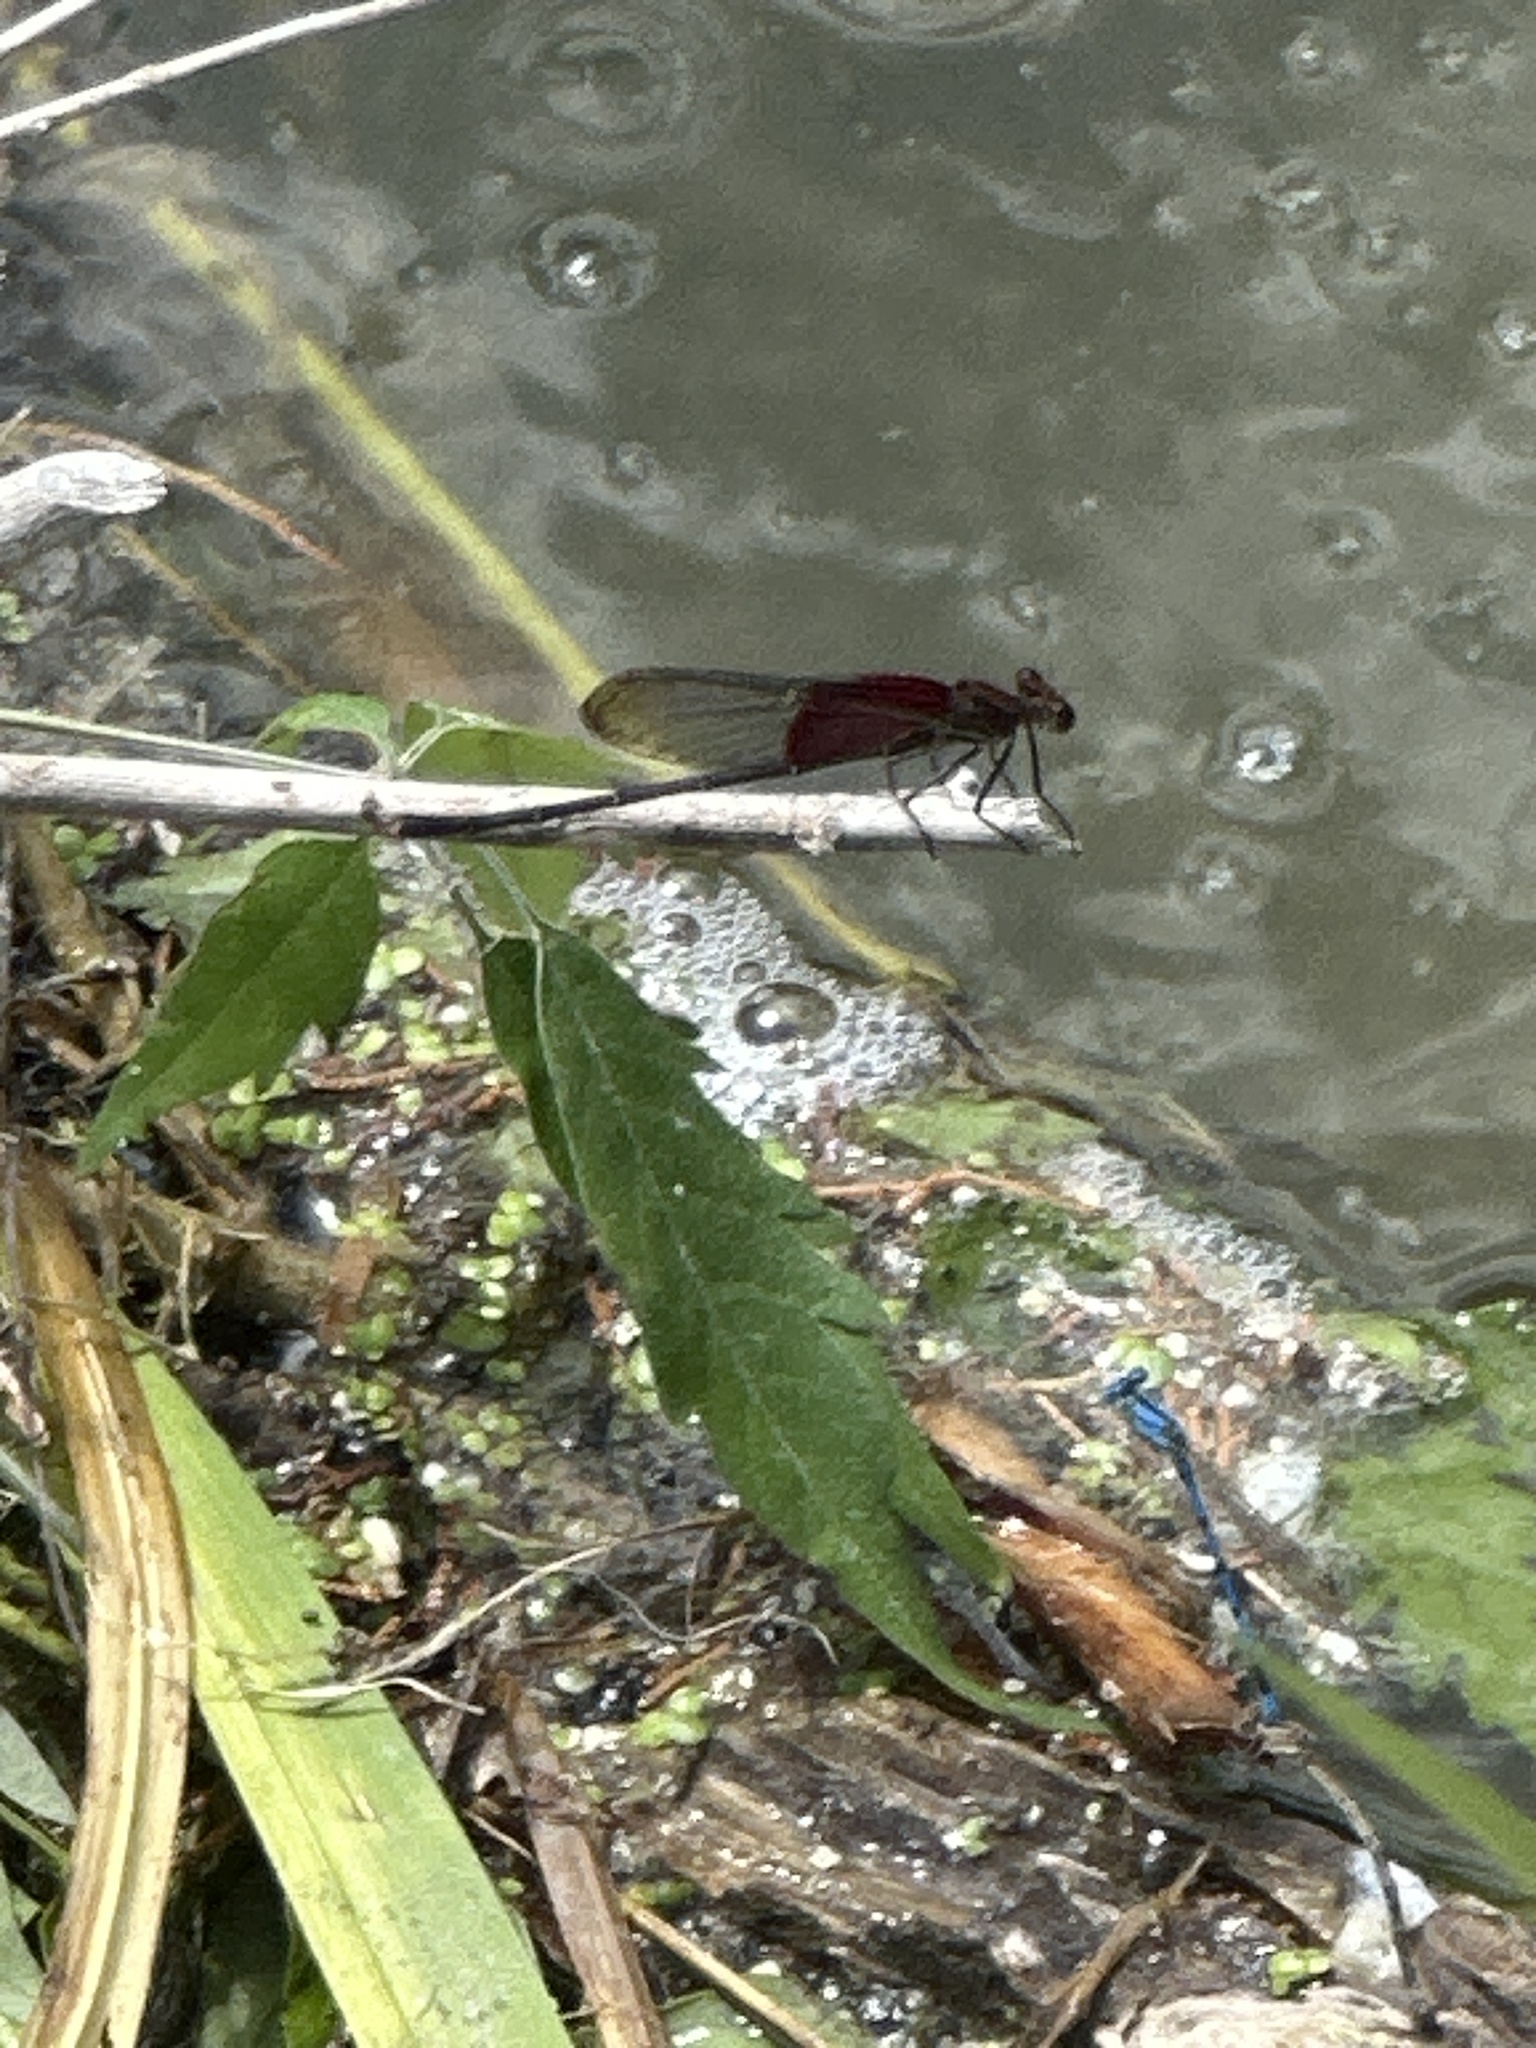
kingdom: Animalia
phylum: Arthropoda
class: Insecta
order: Odonata
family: Calopterygidae
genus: Hetaerina
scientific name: Hetaerina americana
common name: American rubyspot
